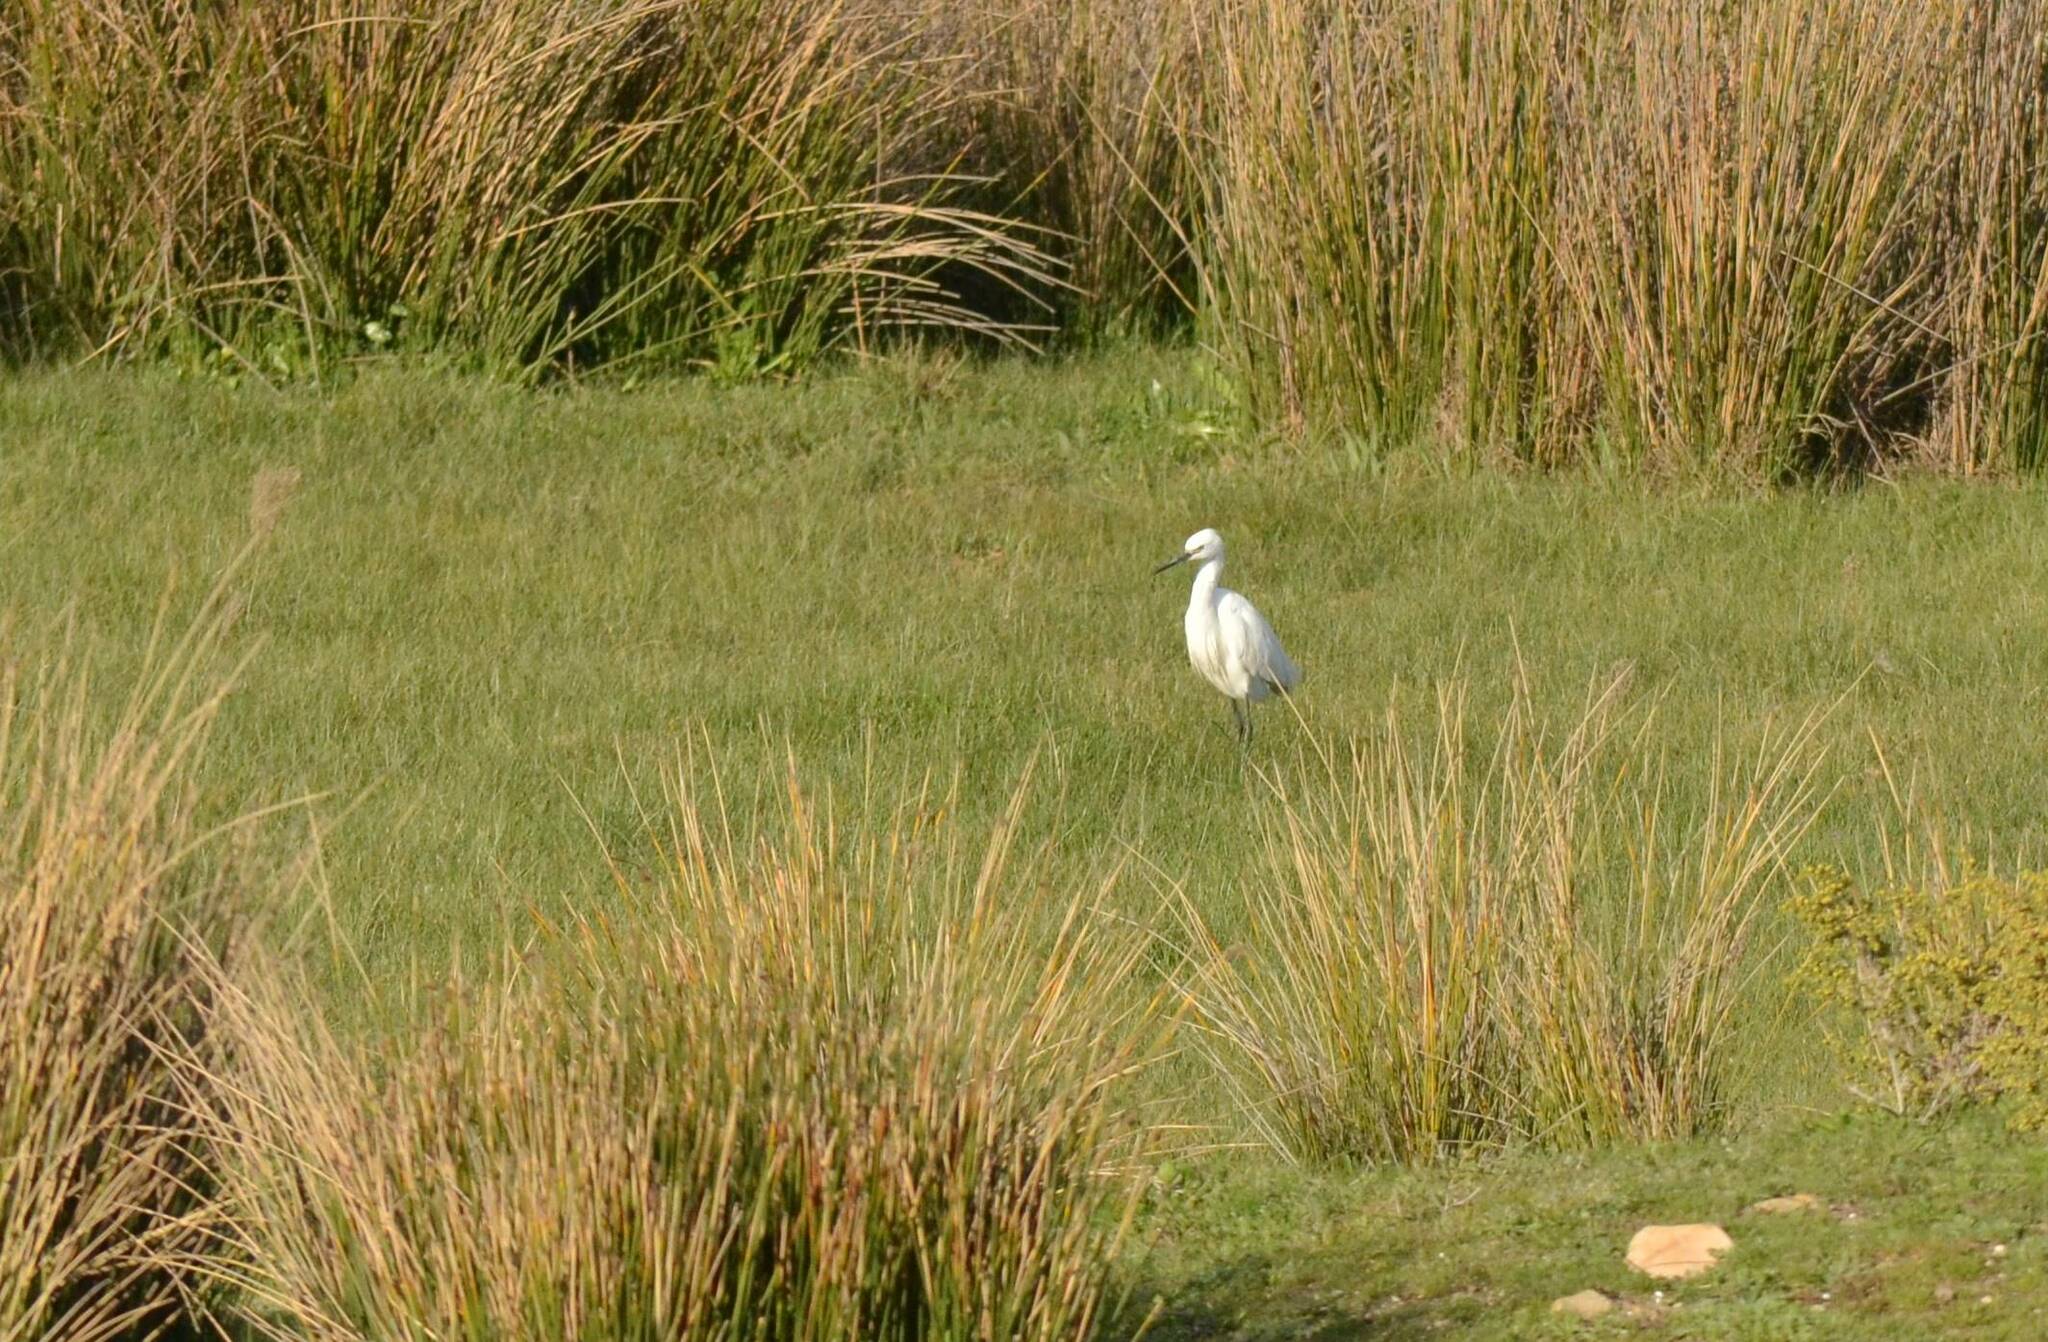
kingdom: Animalia
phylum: Chordata
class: Aves
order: Pelecaniformes
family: Ardeidae
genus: Egretta
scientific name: Egretta garzetta
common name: Little egret
